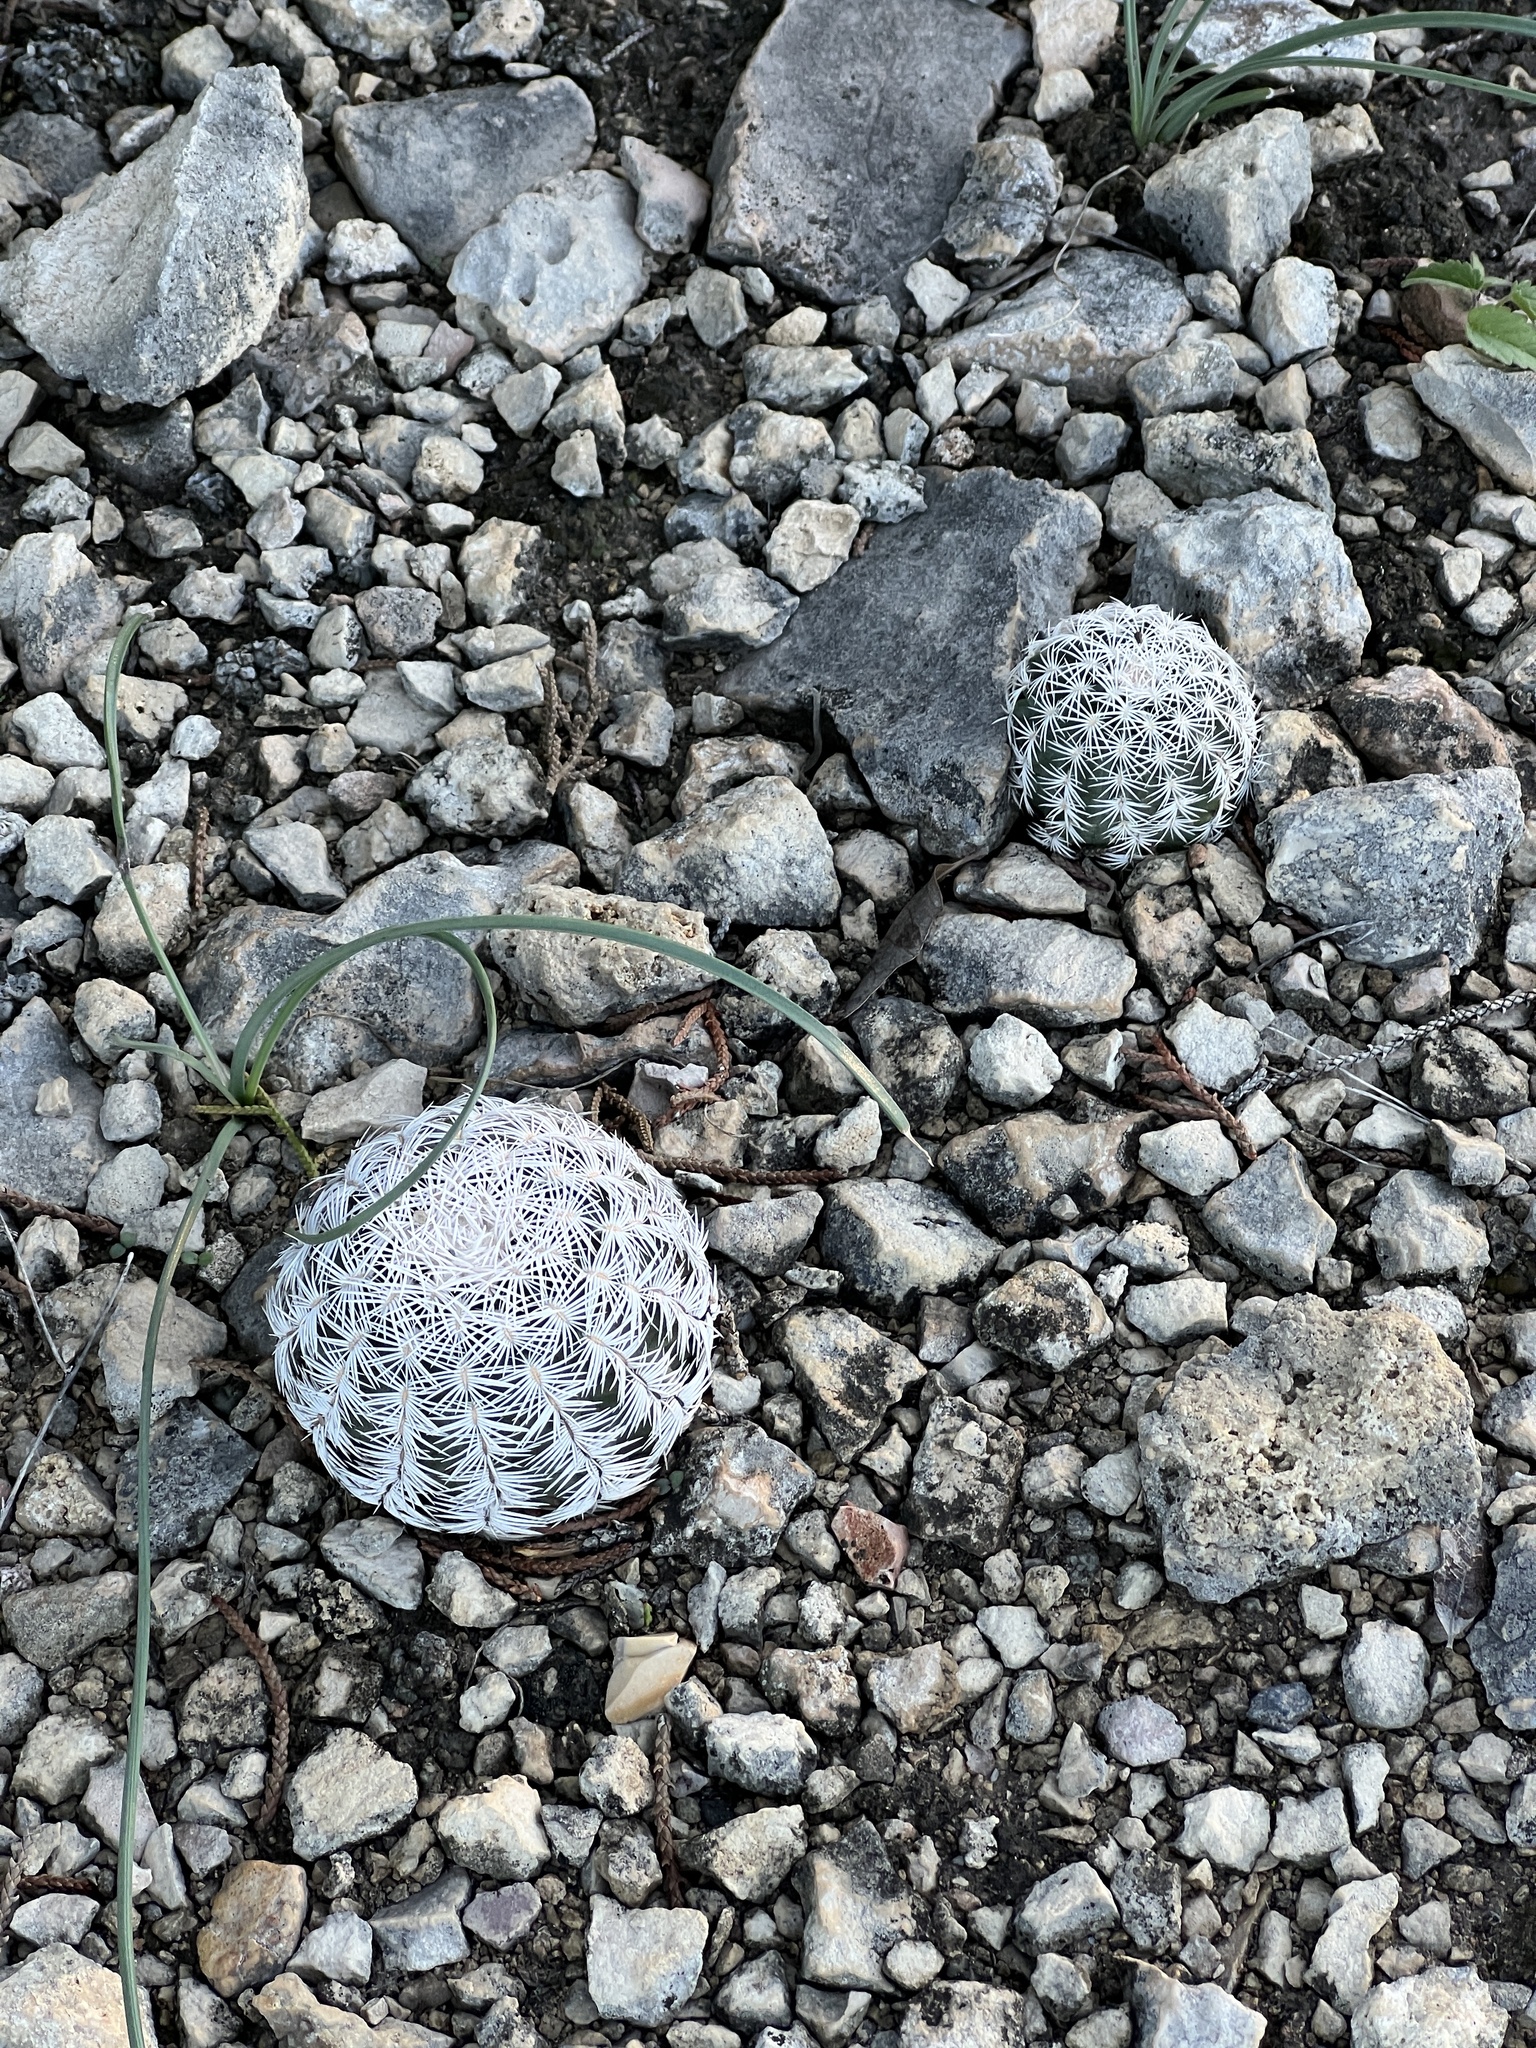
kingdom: Plantae
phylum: Tracheophyta
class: Magnoliopsida
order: Caryophyllales
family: Cactaceae
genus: Echinocereus
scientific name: Echinocereus reichenbachii
